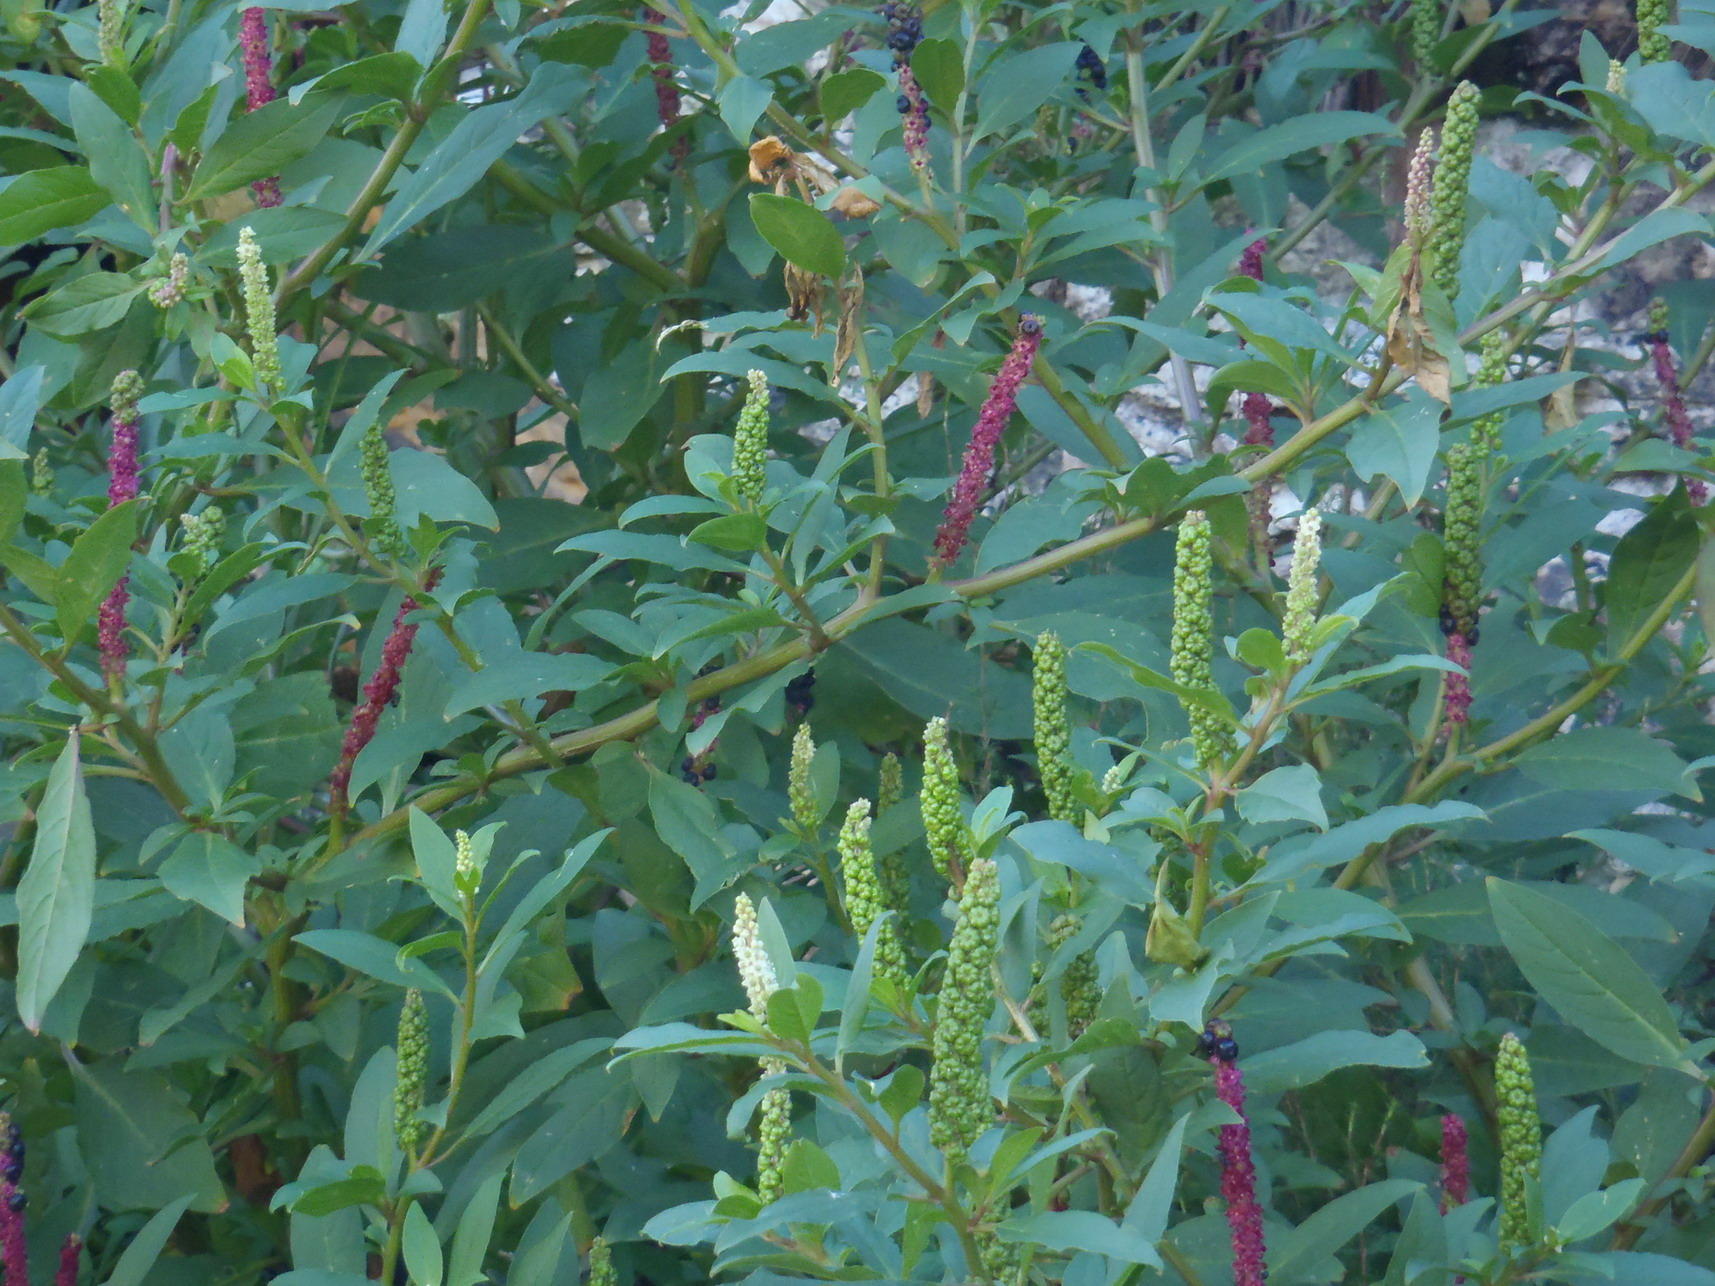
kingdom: Plantae
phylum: Tracheophyta
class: Magnoliopsida
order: Caryophyllales
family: Phytolaccaceae
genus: Phytolacca
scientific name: Phytolacca icosandra
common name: Button pokeweed
